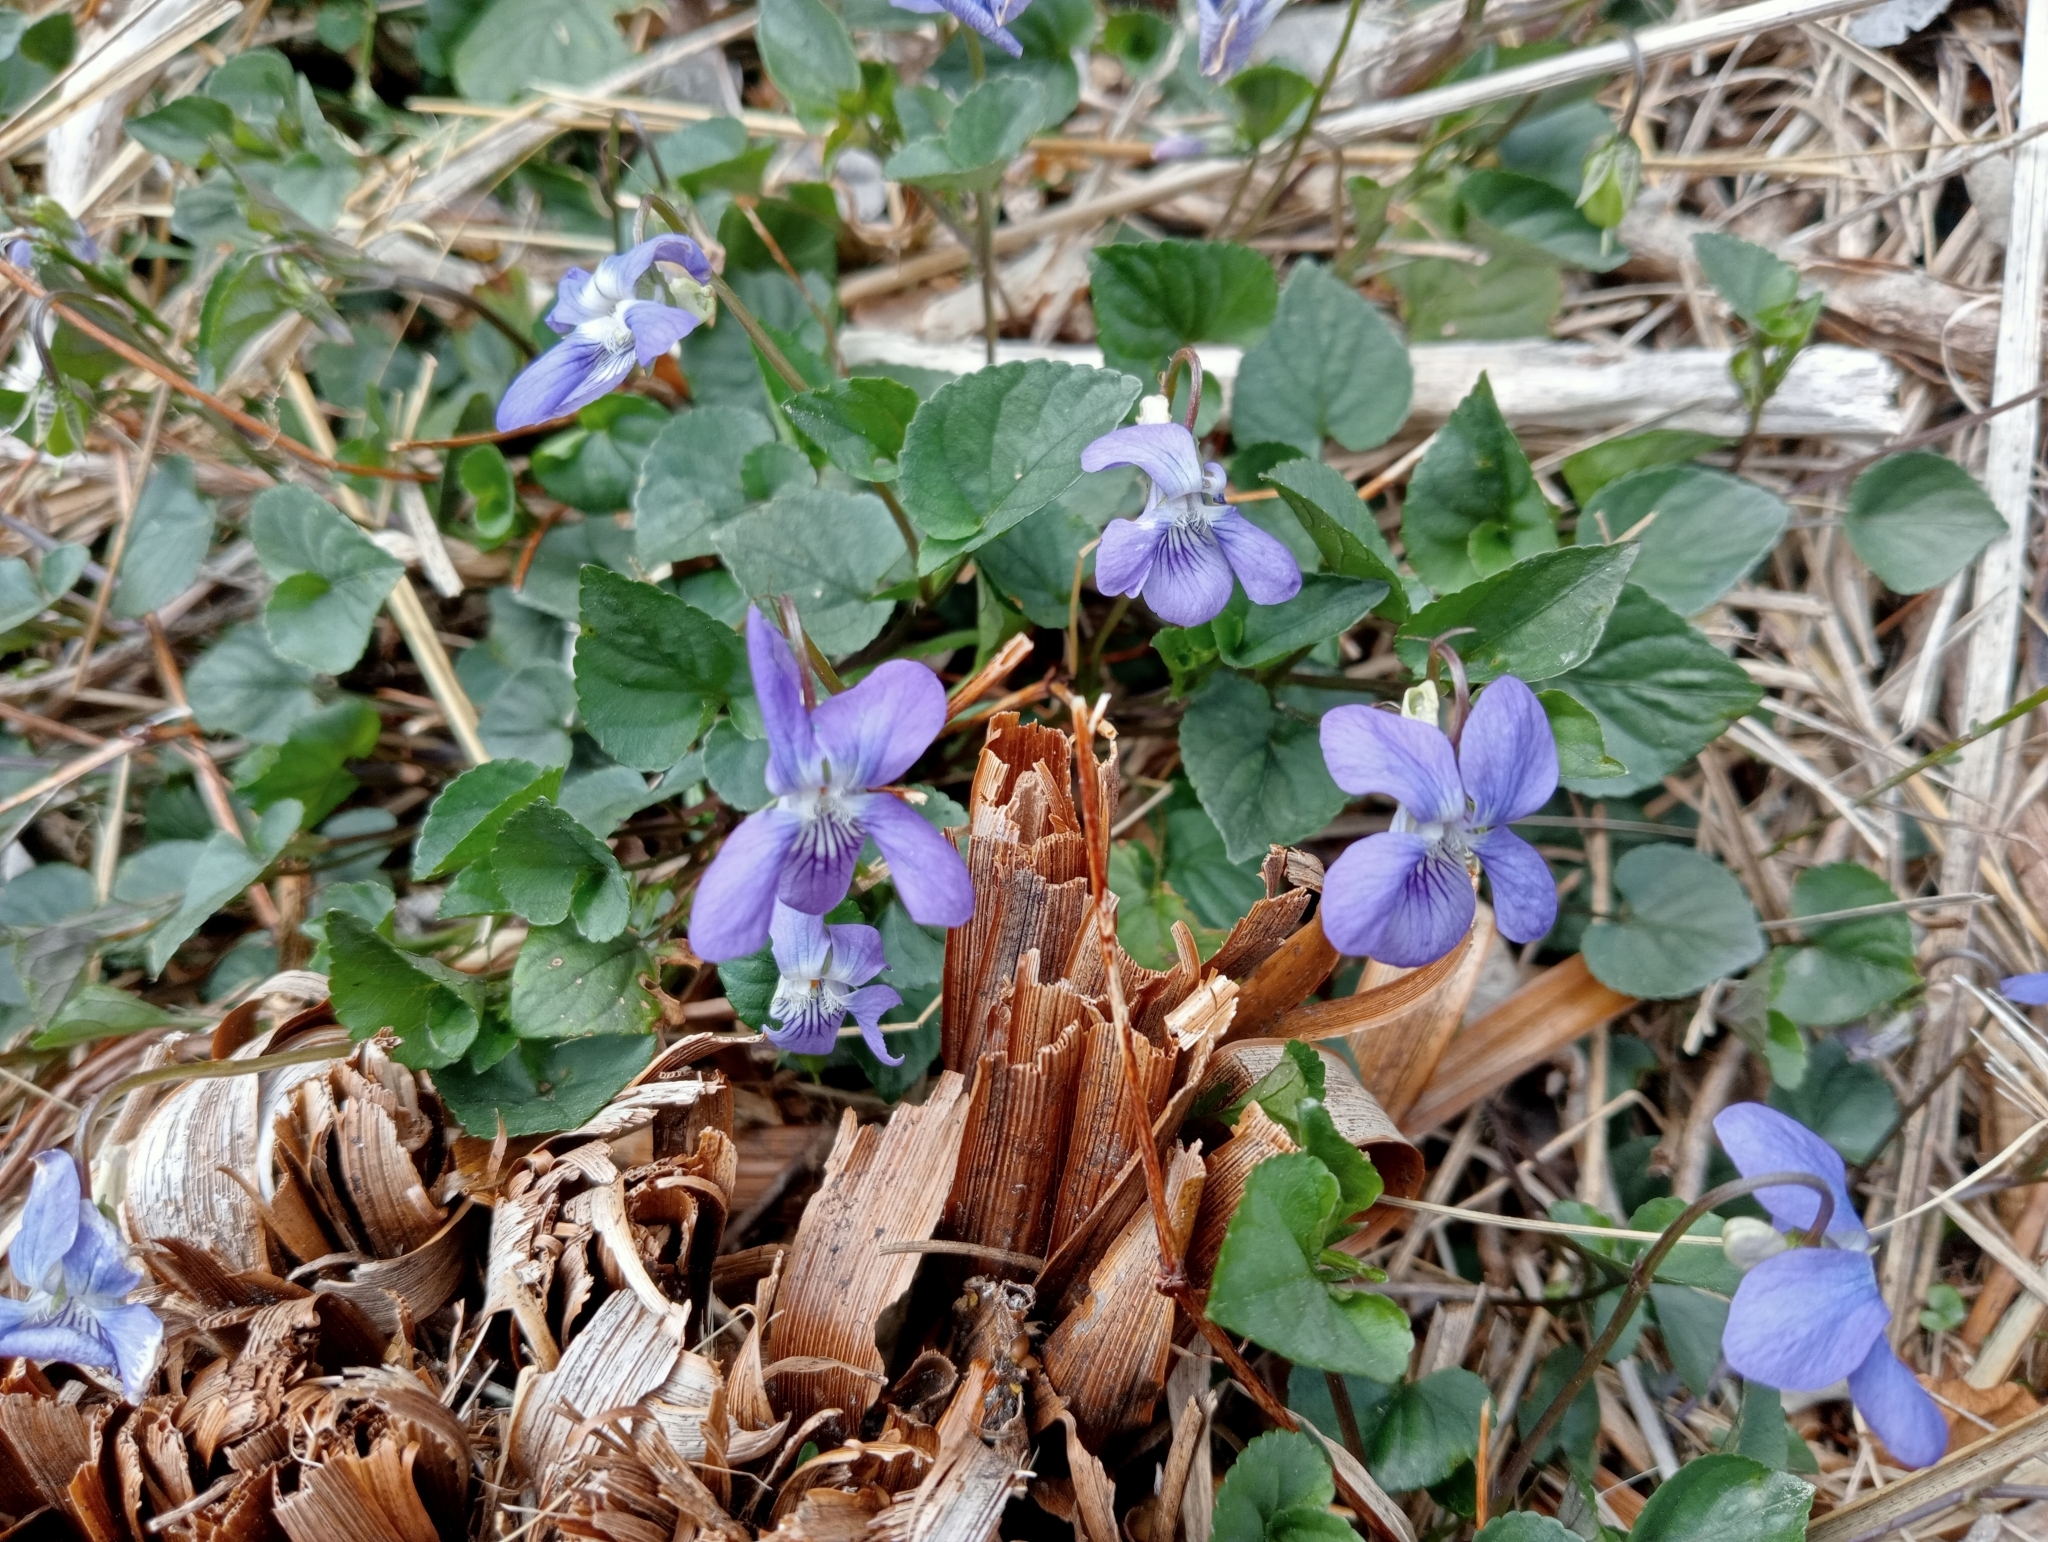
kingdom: Plantae
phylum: Tracheophyta
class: Magnoliopsida
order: Malpighiales
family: Violaceae
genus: Viola
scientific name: Viola riviniana
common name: Common dog-violet
